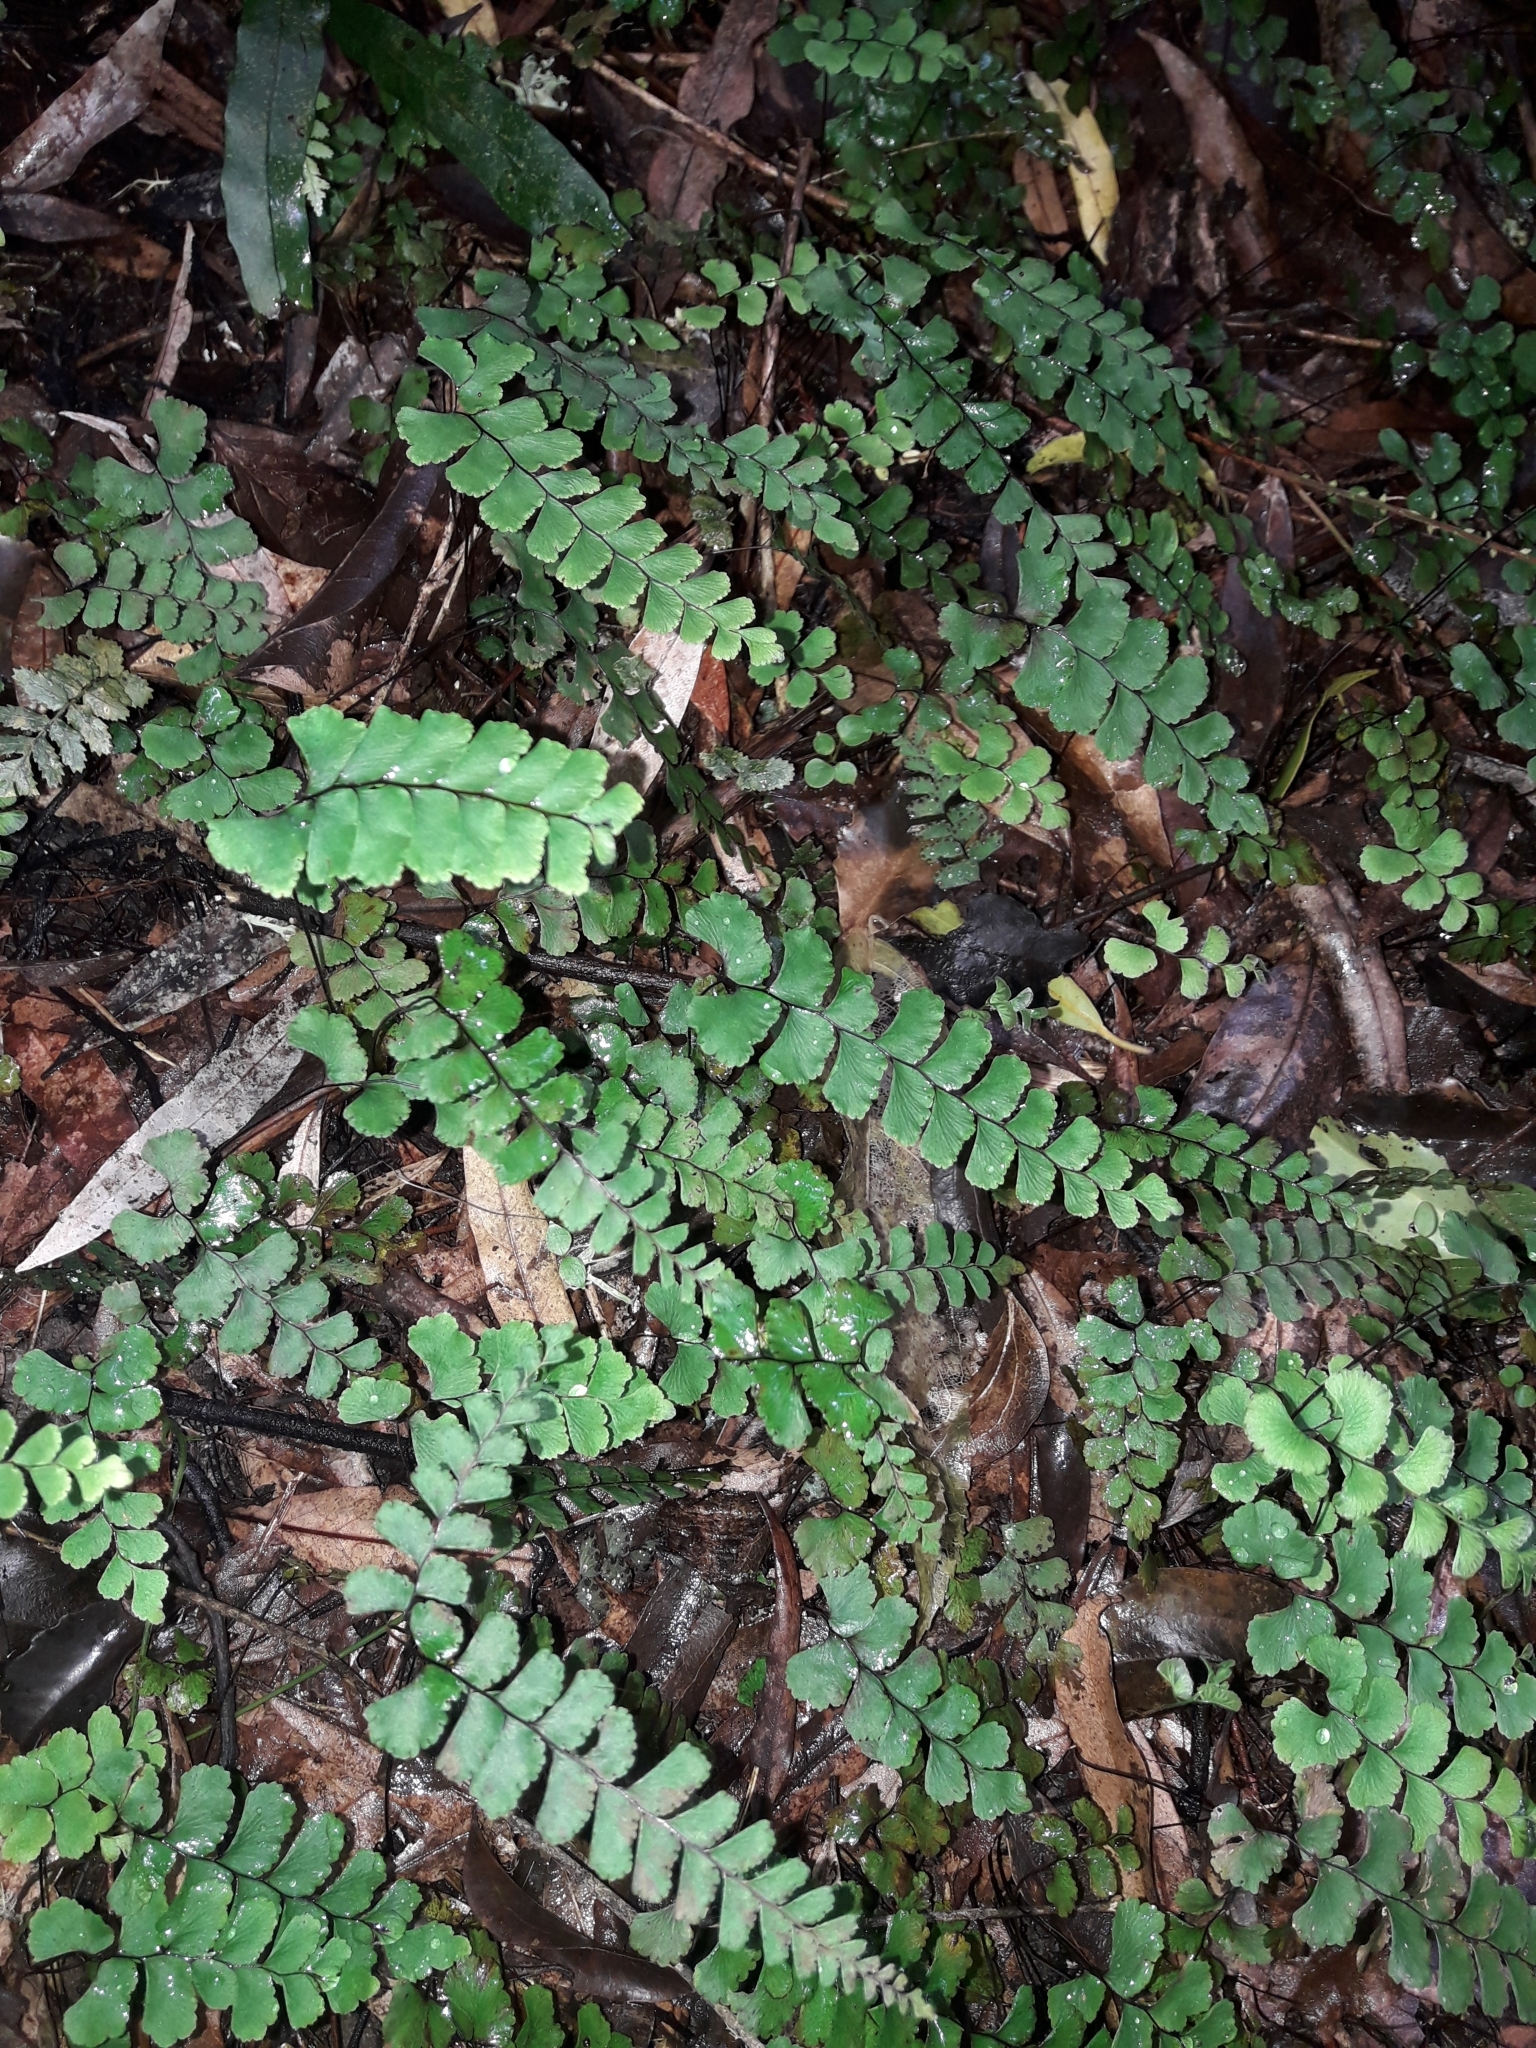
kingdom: Plantae
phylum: Tracheophyta
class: Polypodiopsida
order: Polypodiales
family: Pteridaceae
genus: Adiantum
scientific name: Adiantum diaphanum
